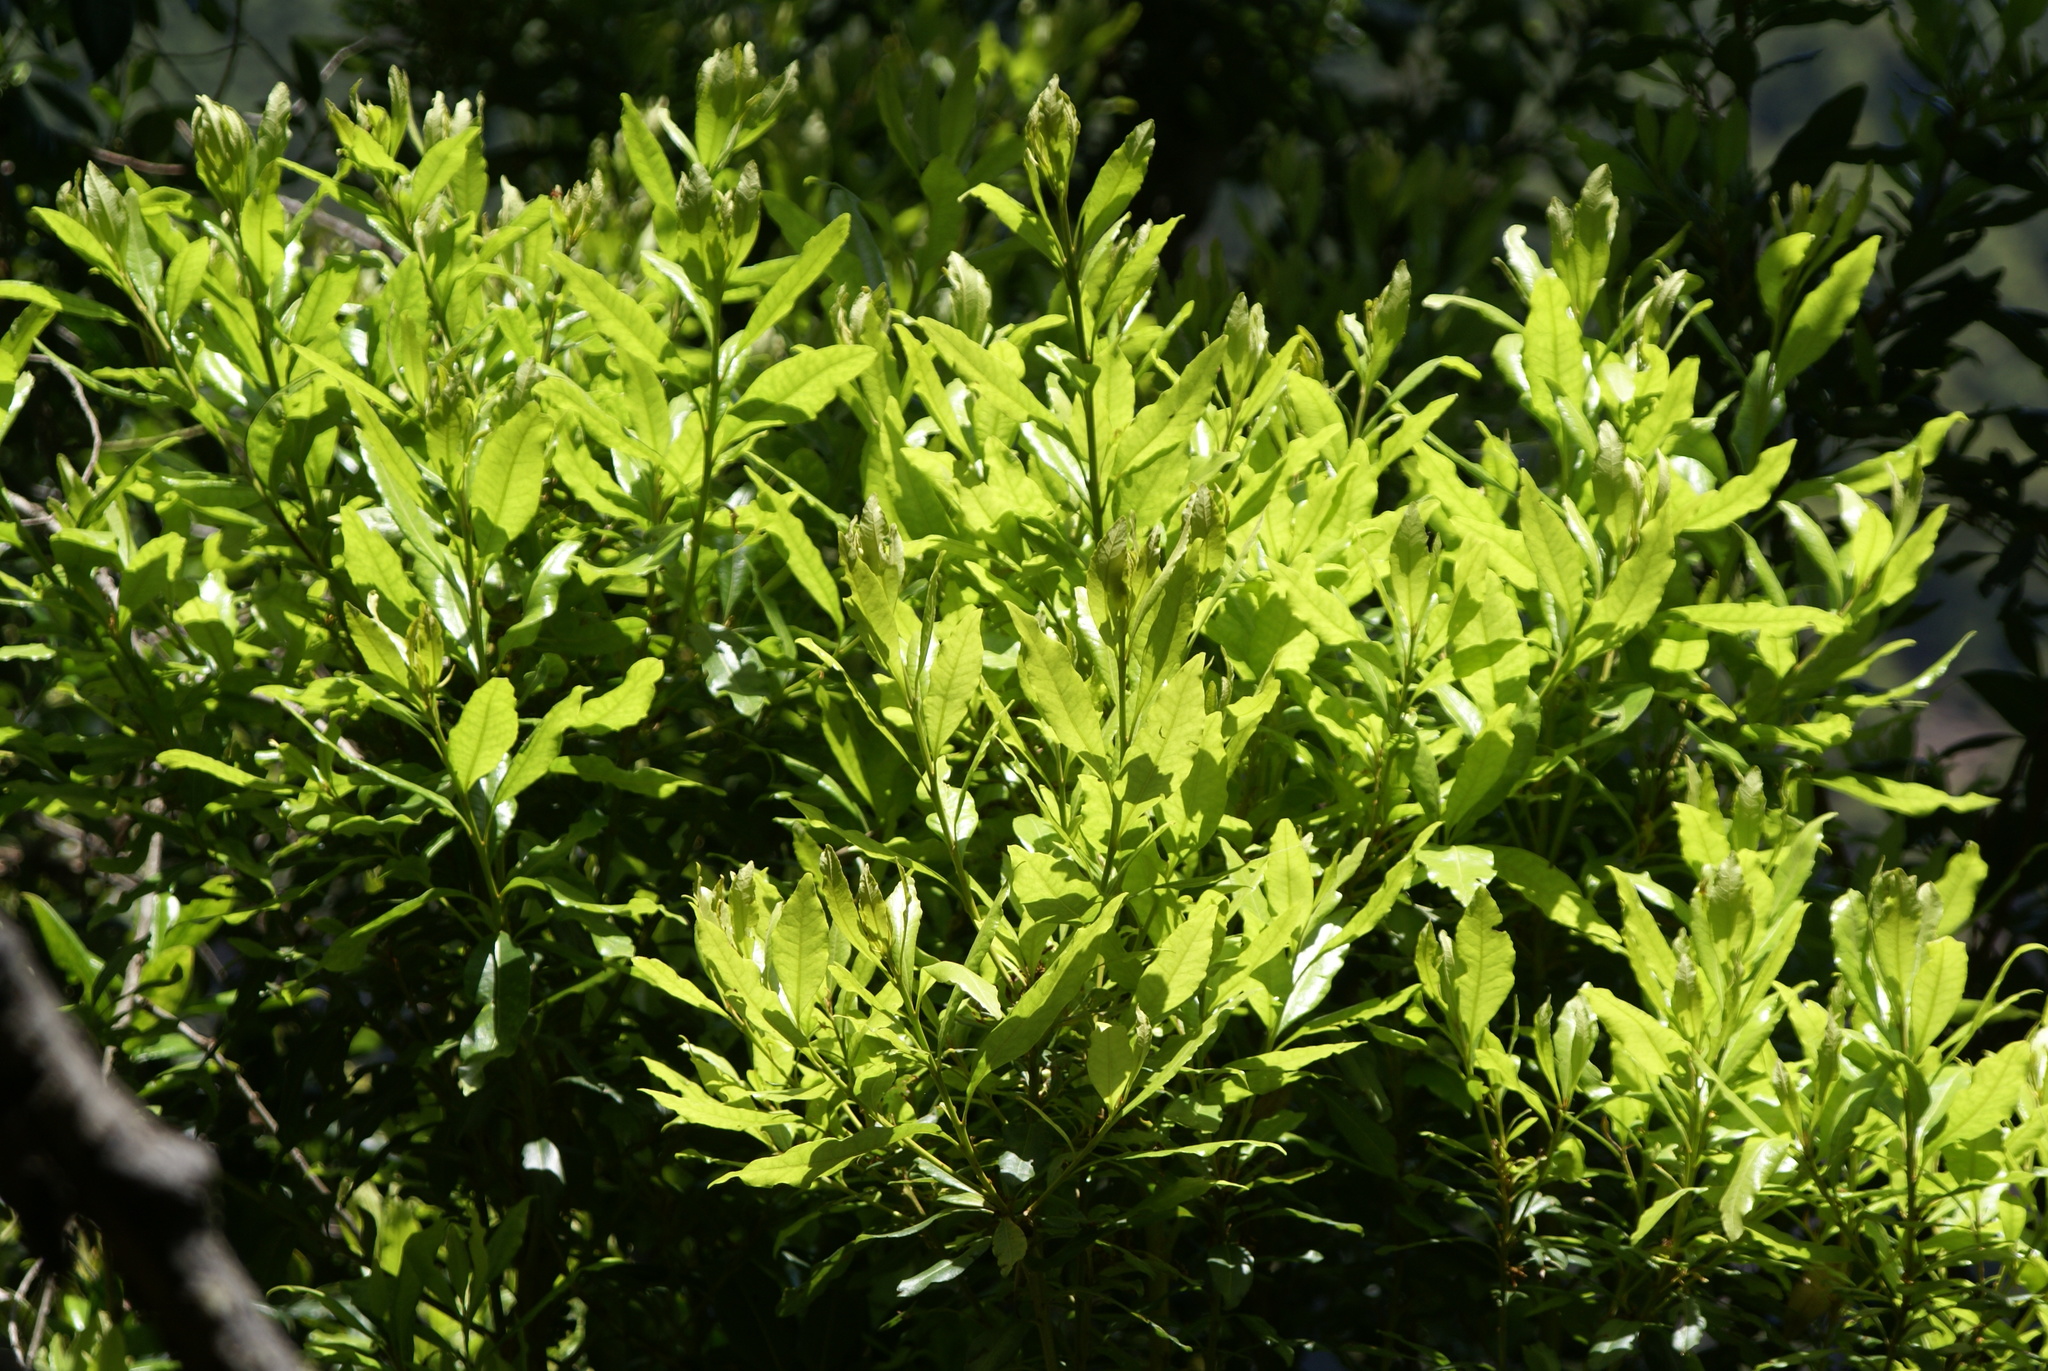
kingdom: Plantae
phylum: Tracheophyta
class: Magnoliopsida
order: Fagales
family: Myricaceae
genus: Morella
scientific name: Morella faya
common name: Firetree
